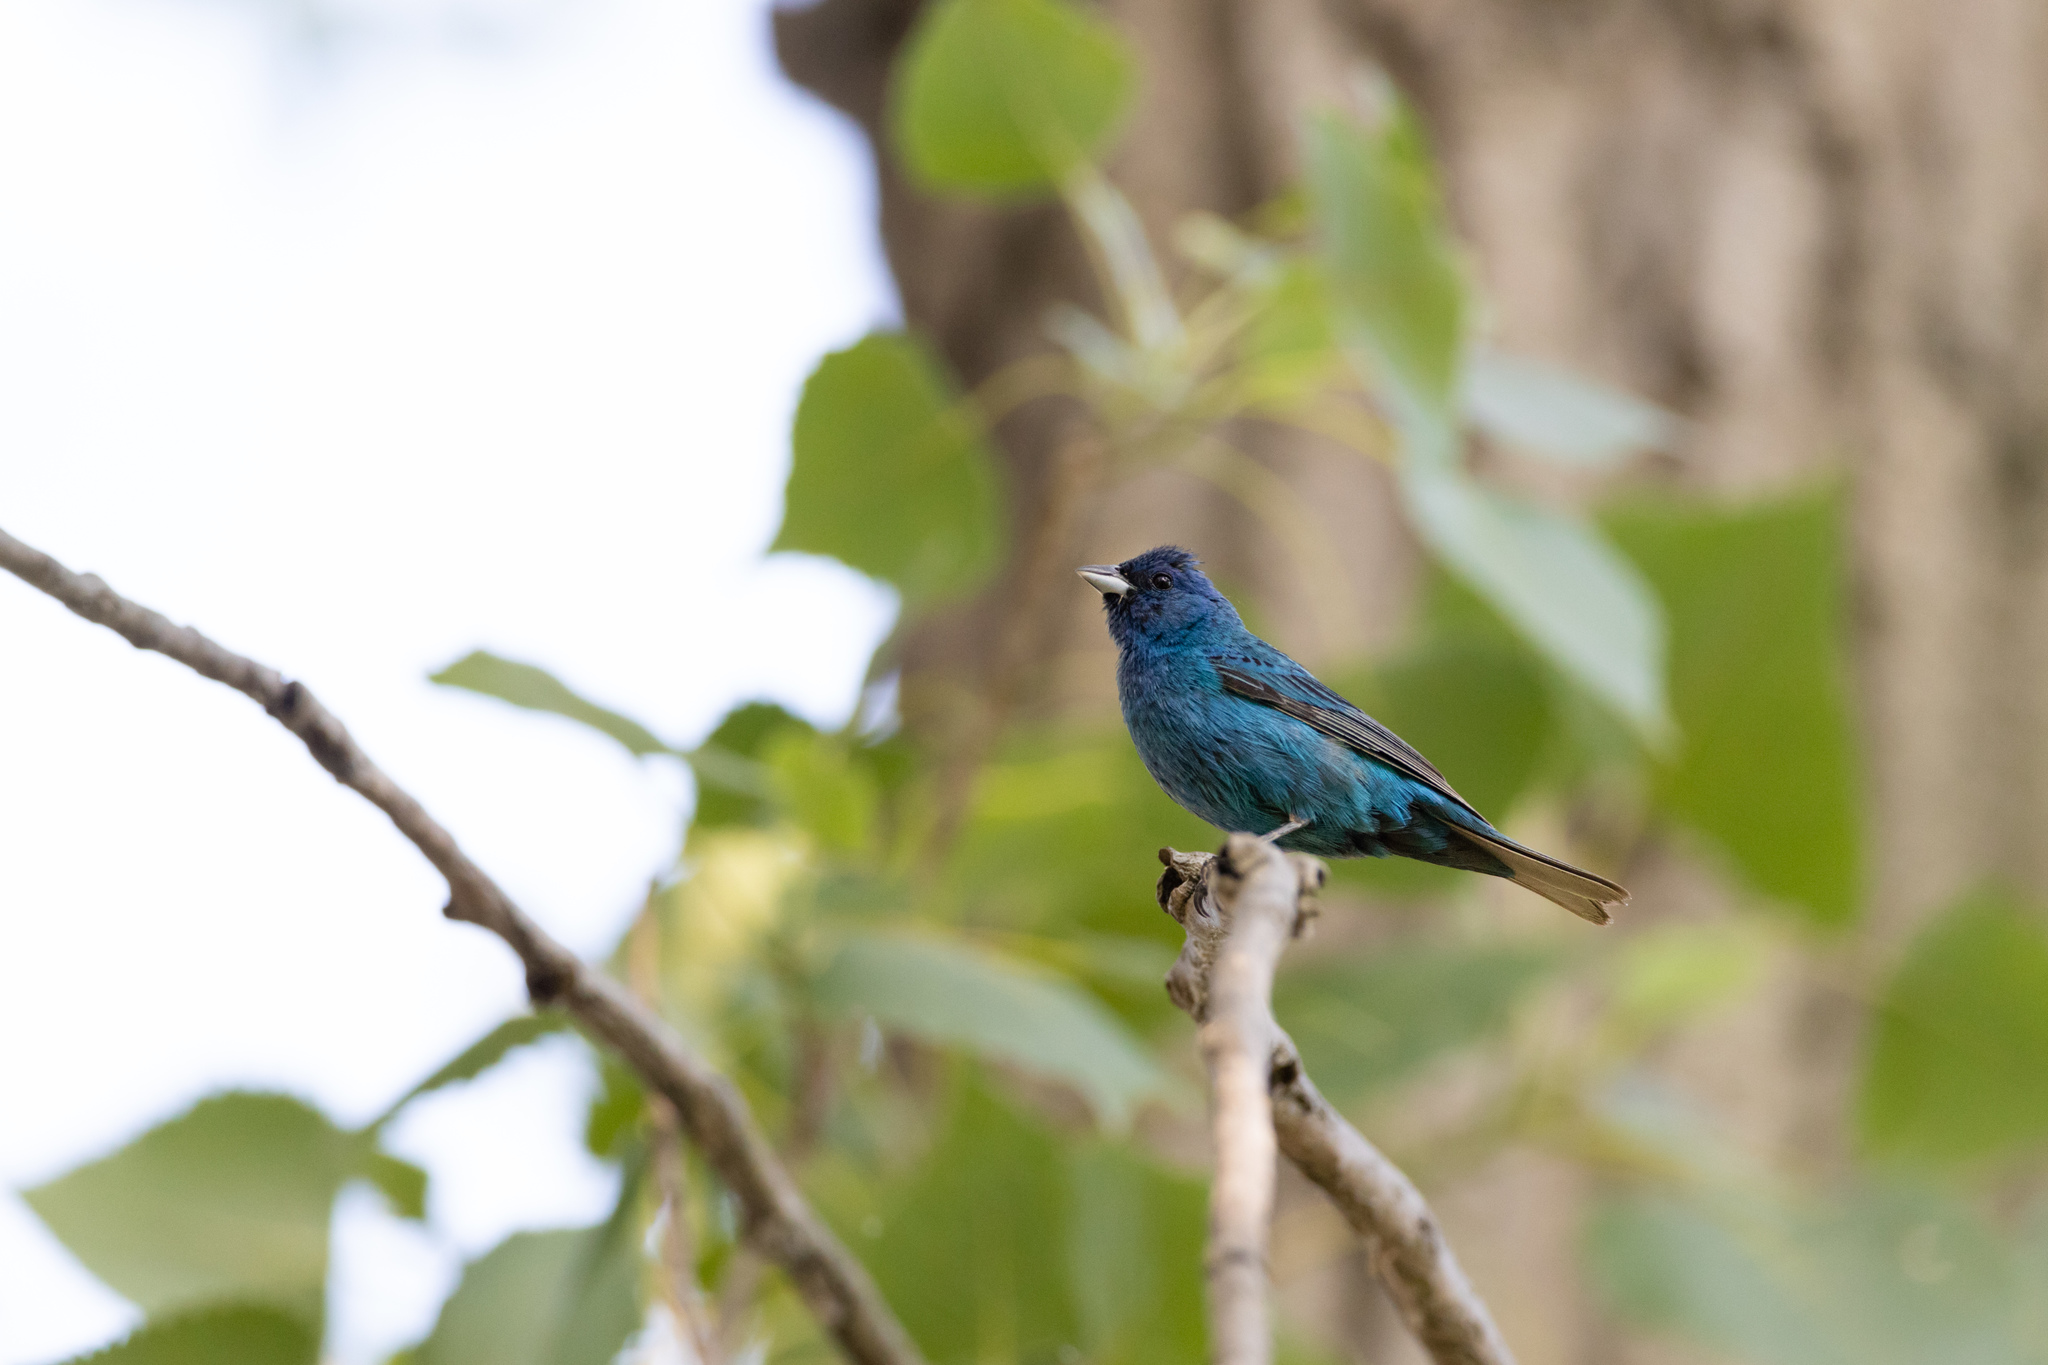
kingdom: Animalia
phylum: Chordata
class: Aves
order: Passeriformes
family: Cardinalidae
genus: Passerina
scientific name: Passerina cyanea
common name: Indigo bunting
